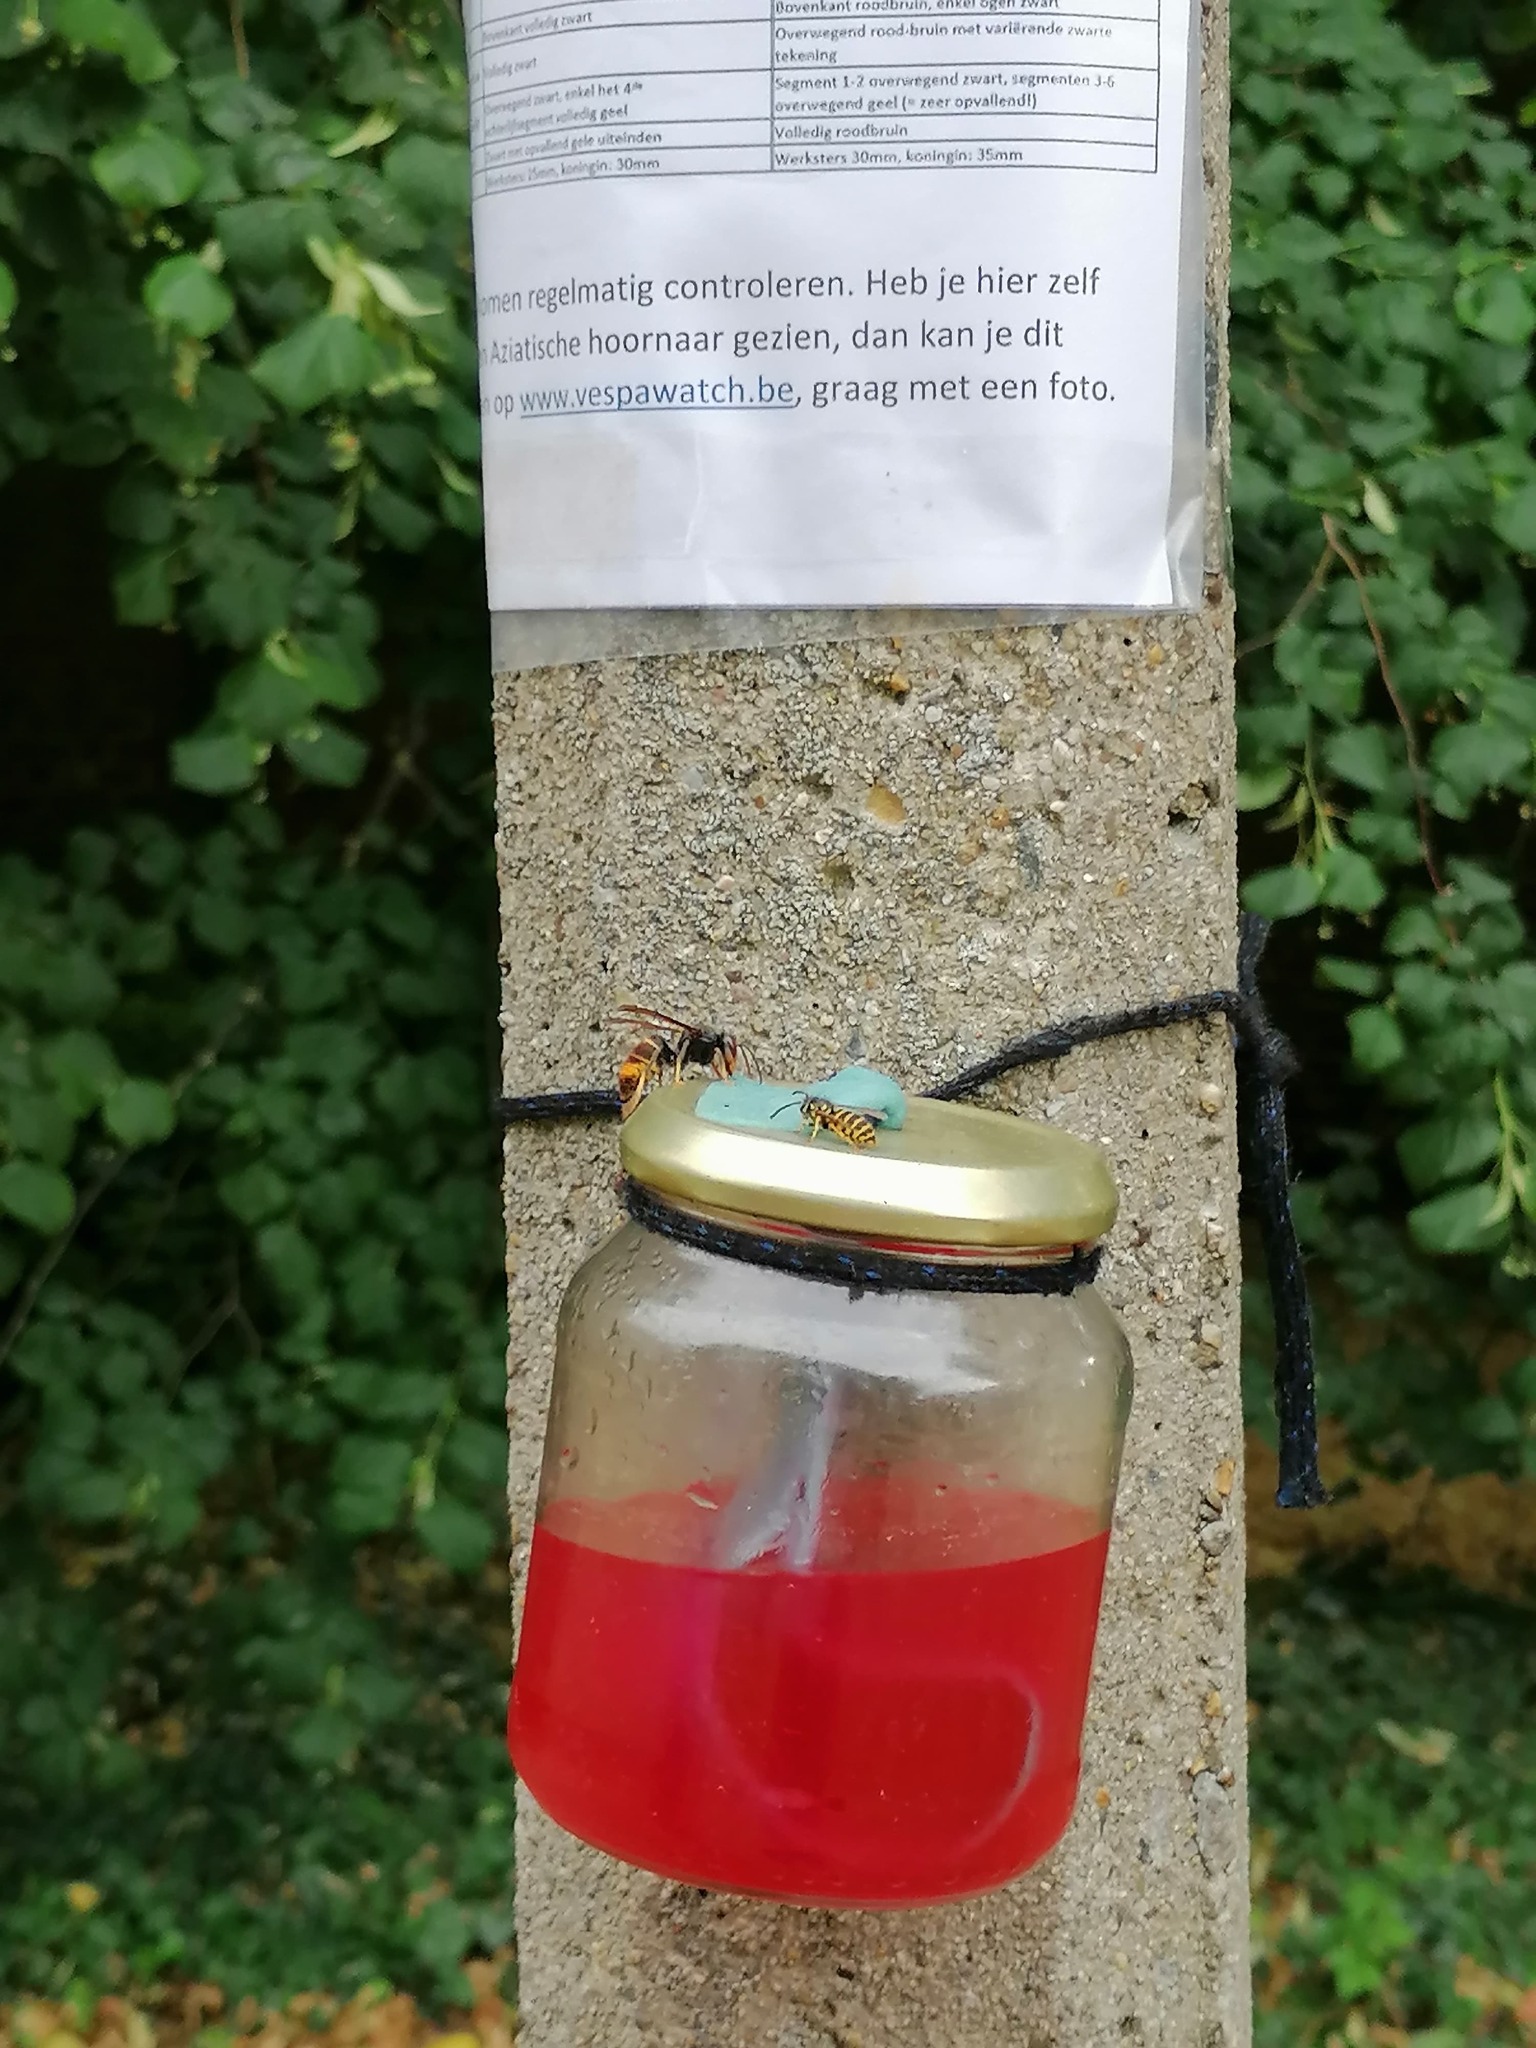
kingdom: Animalia
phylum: Arthropoda
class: Insecta
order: Hymenoptera
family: Vespidae
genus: Vespa
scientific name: Vespa velutina
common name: Asian hornet
